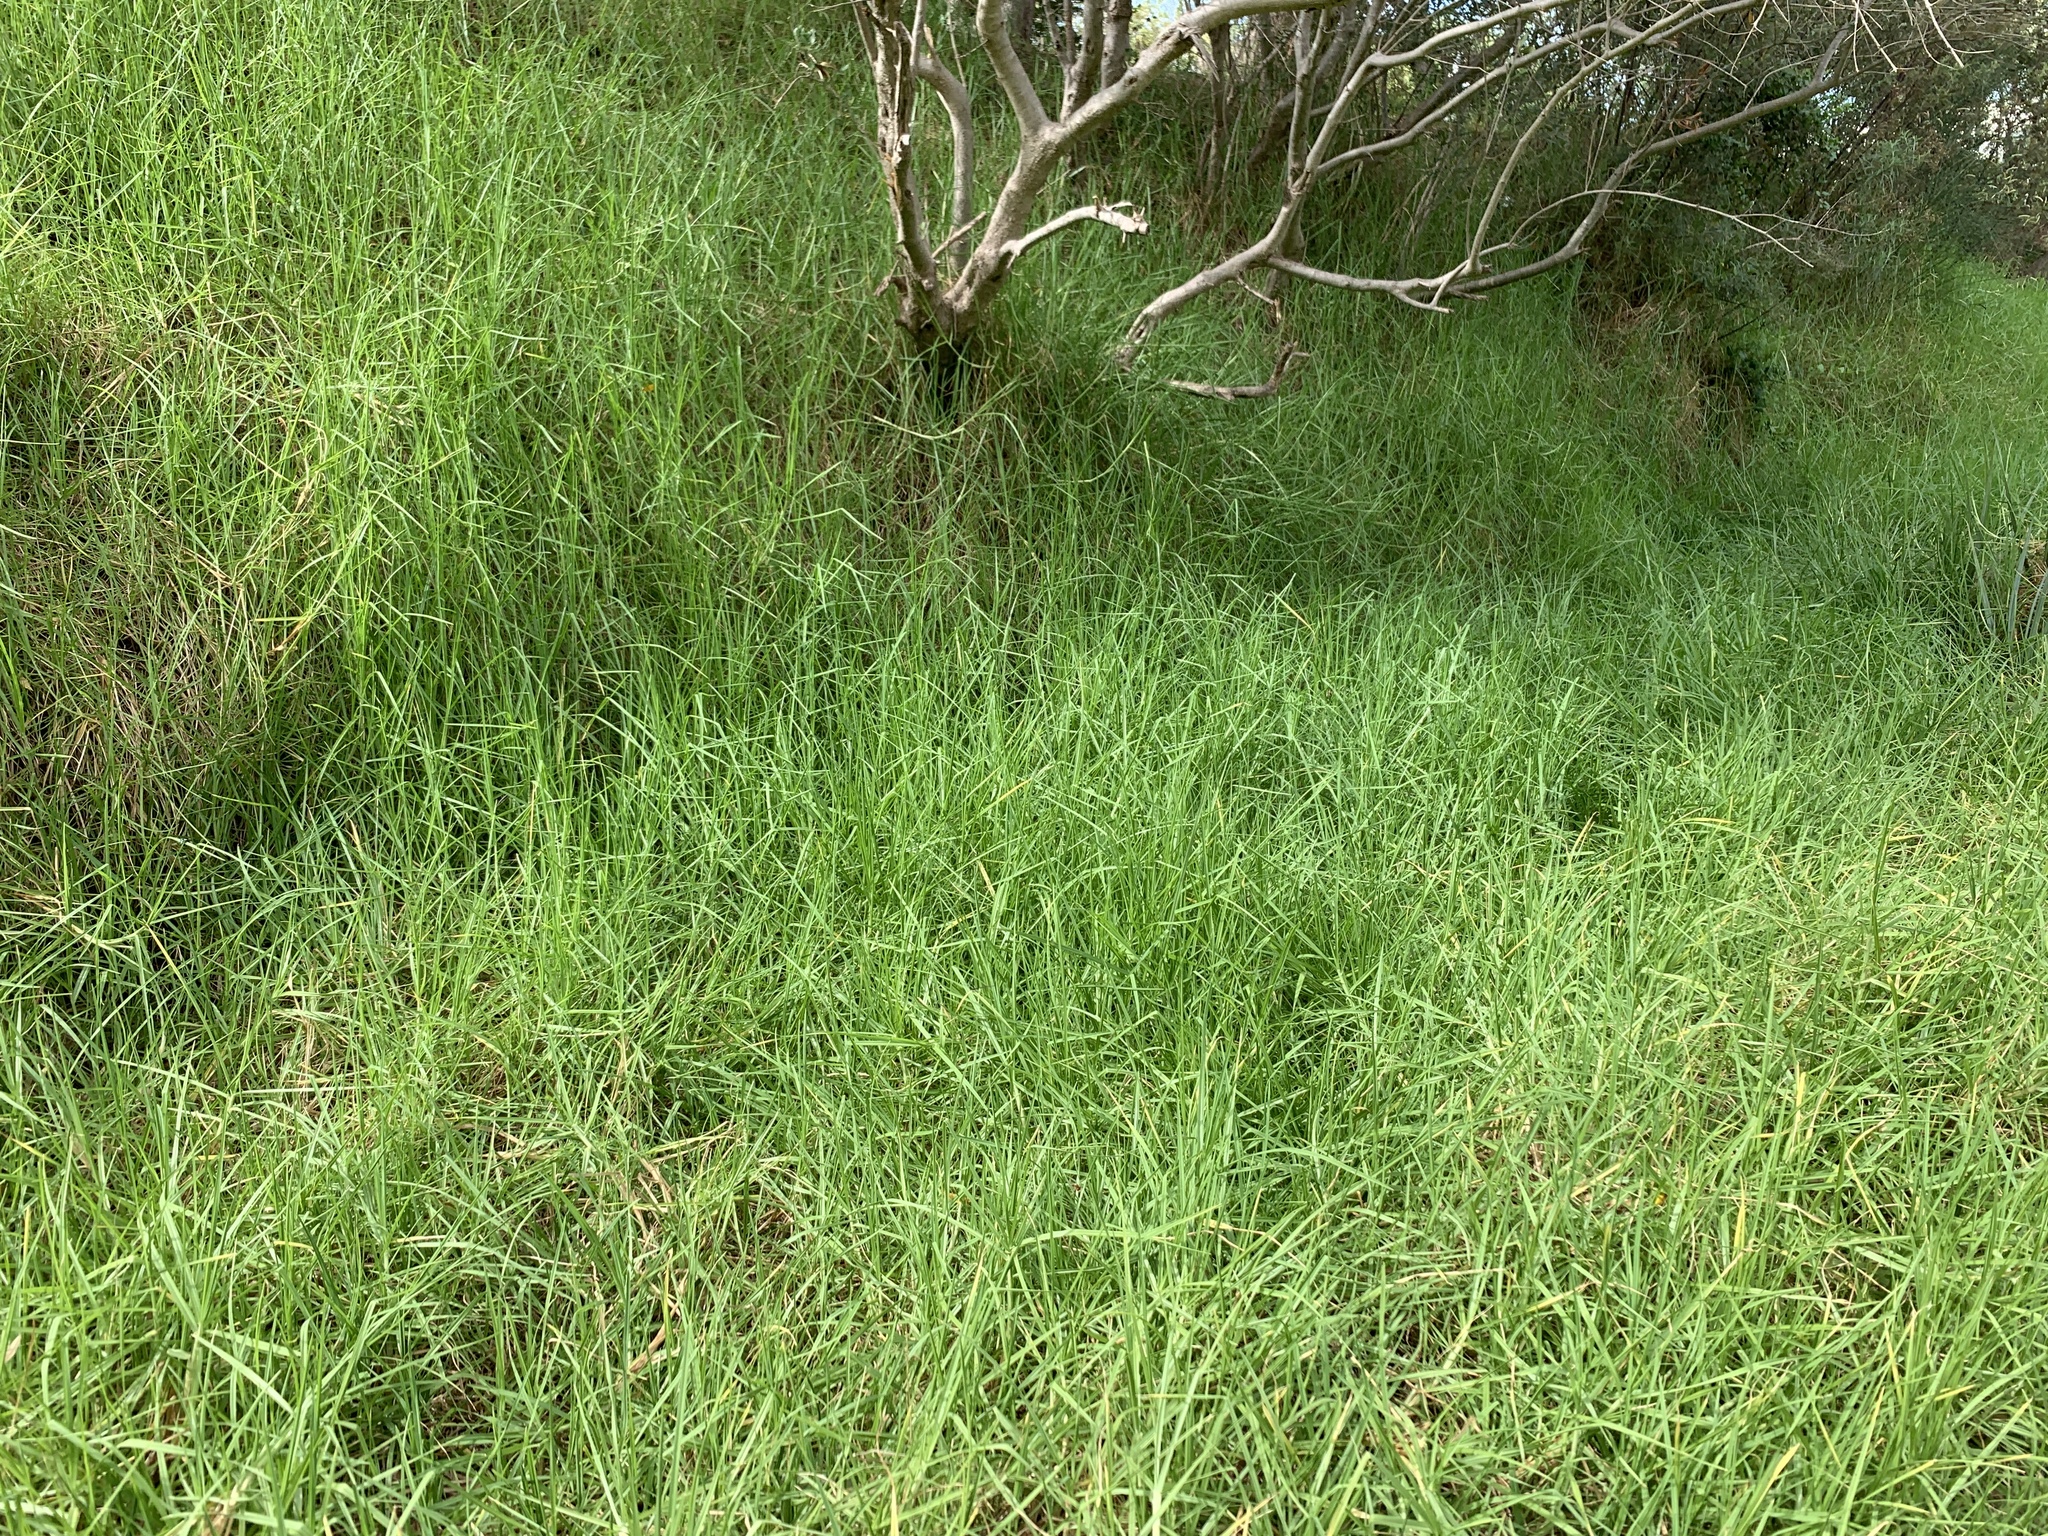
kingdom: Plantae
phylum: Tracheophyta
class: Liliopsida
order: Poales
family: Poaceae
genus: Cenchrus
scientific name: Cenchrus clandestinus
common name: Kikuyugrass
